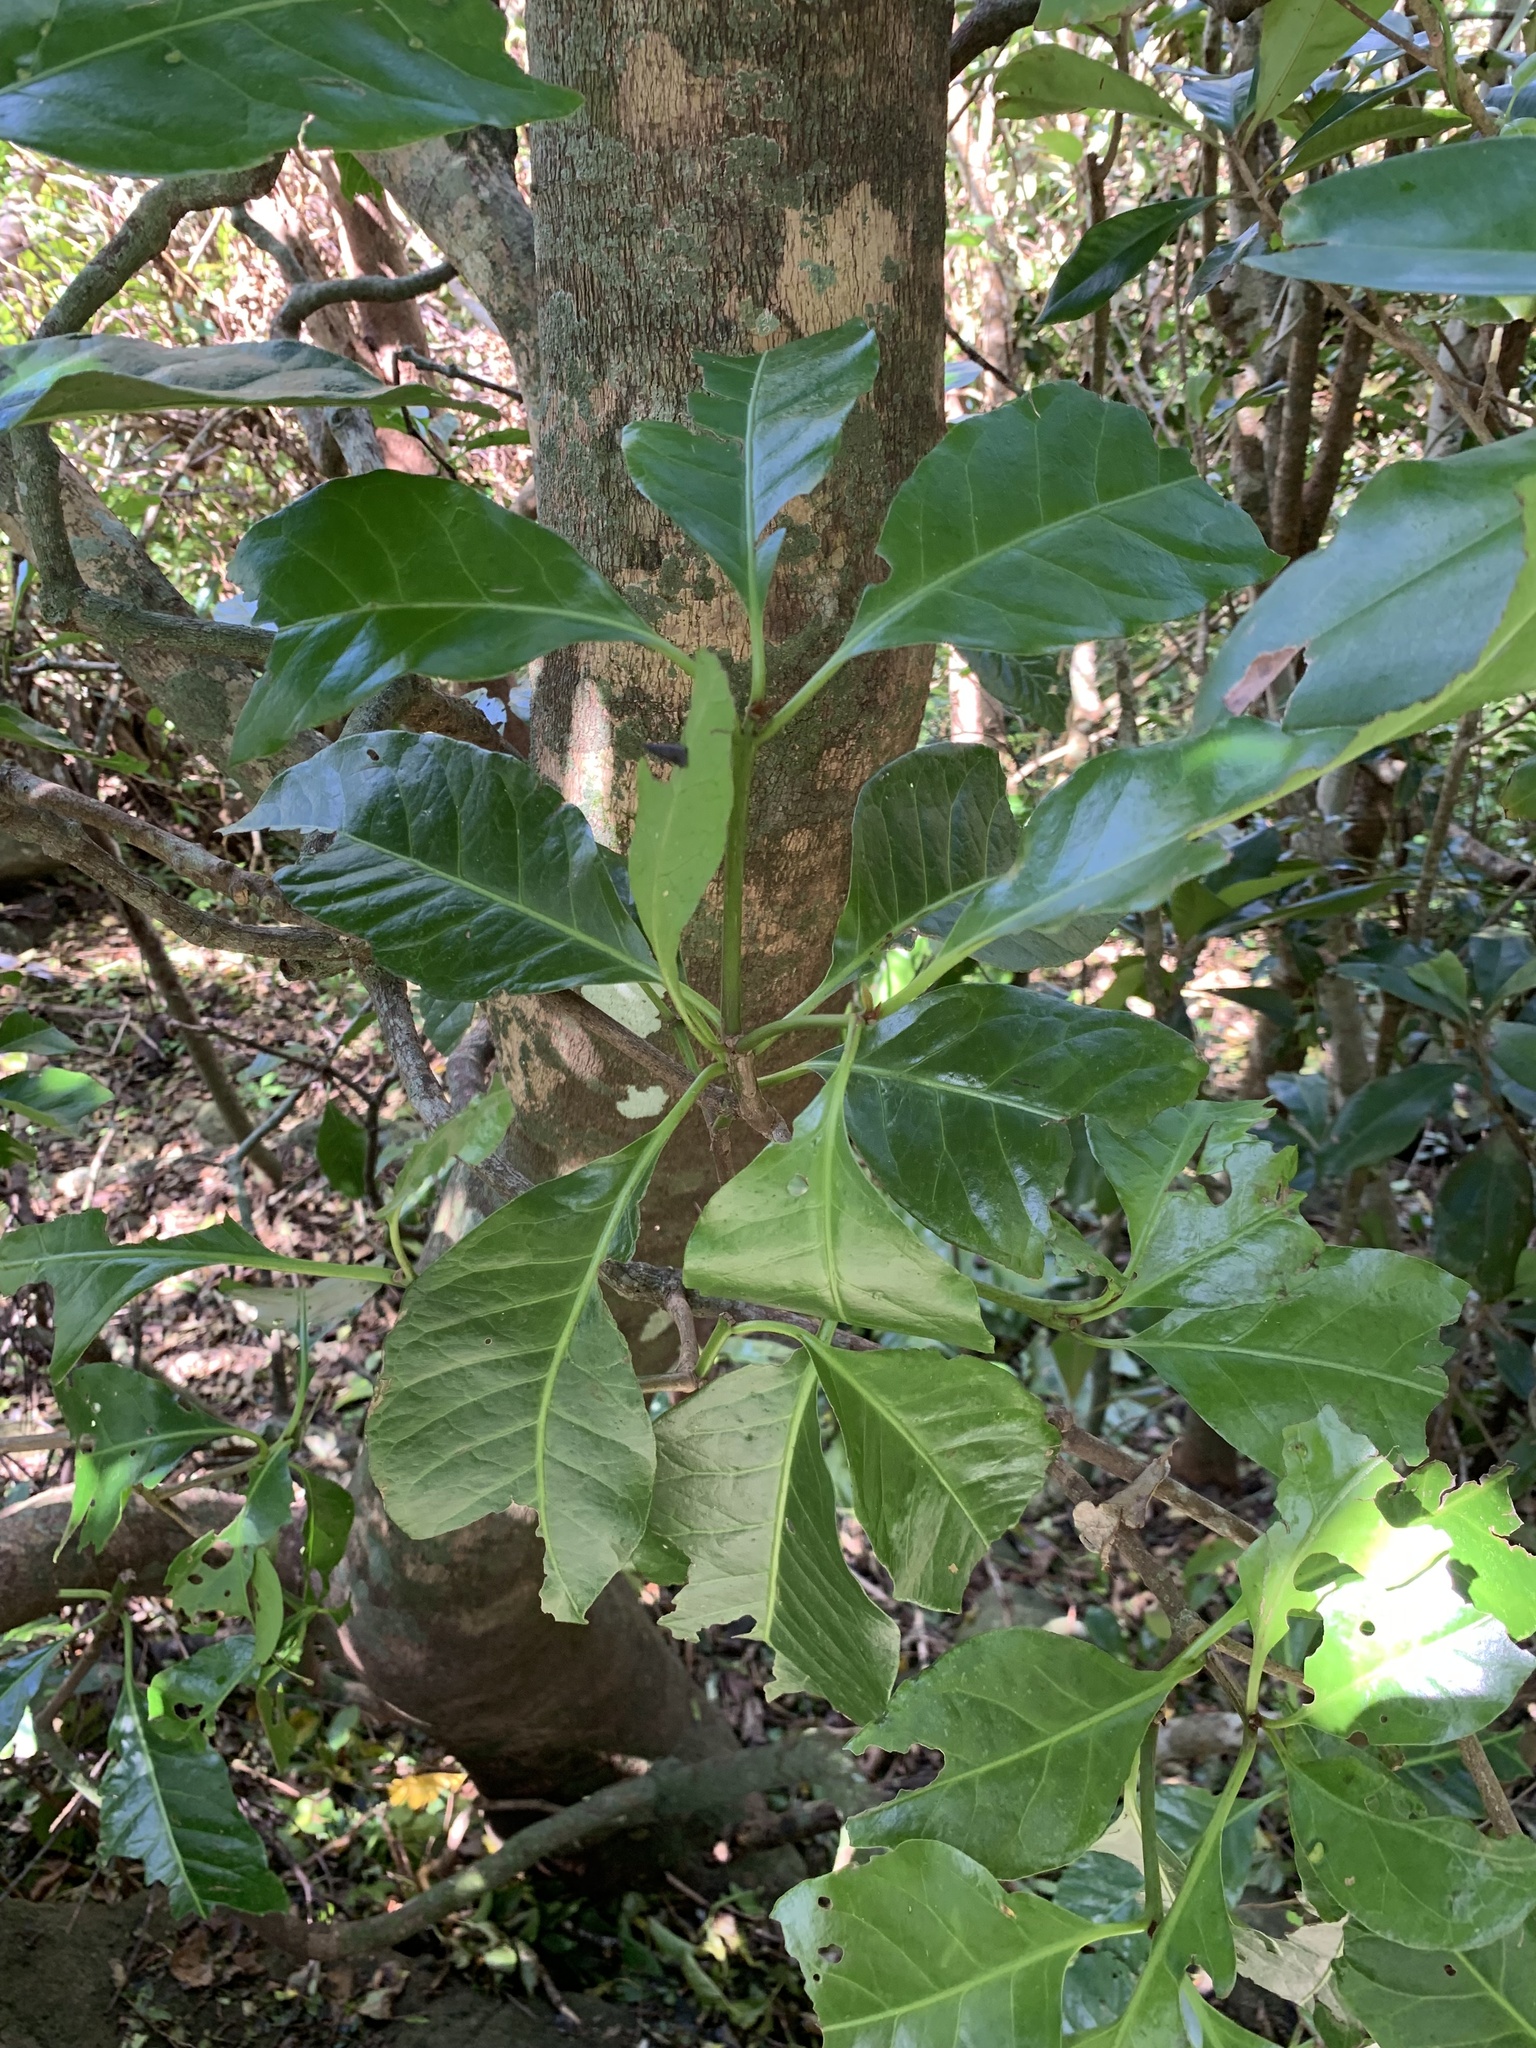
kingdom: Plantae
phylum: Tracheophyta
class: Magnoliopsida
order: Caryophyllales
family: Nyctaginaceae
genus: Ceodes
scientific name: Ceodes umbellifera
